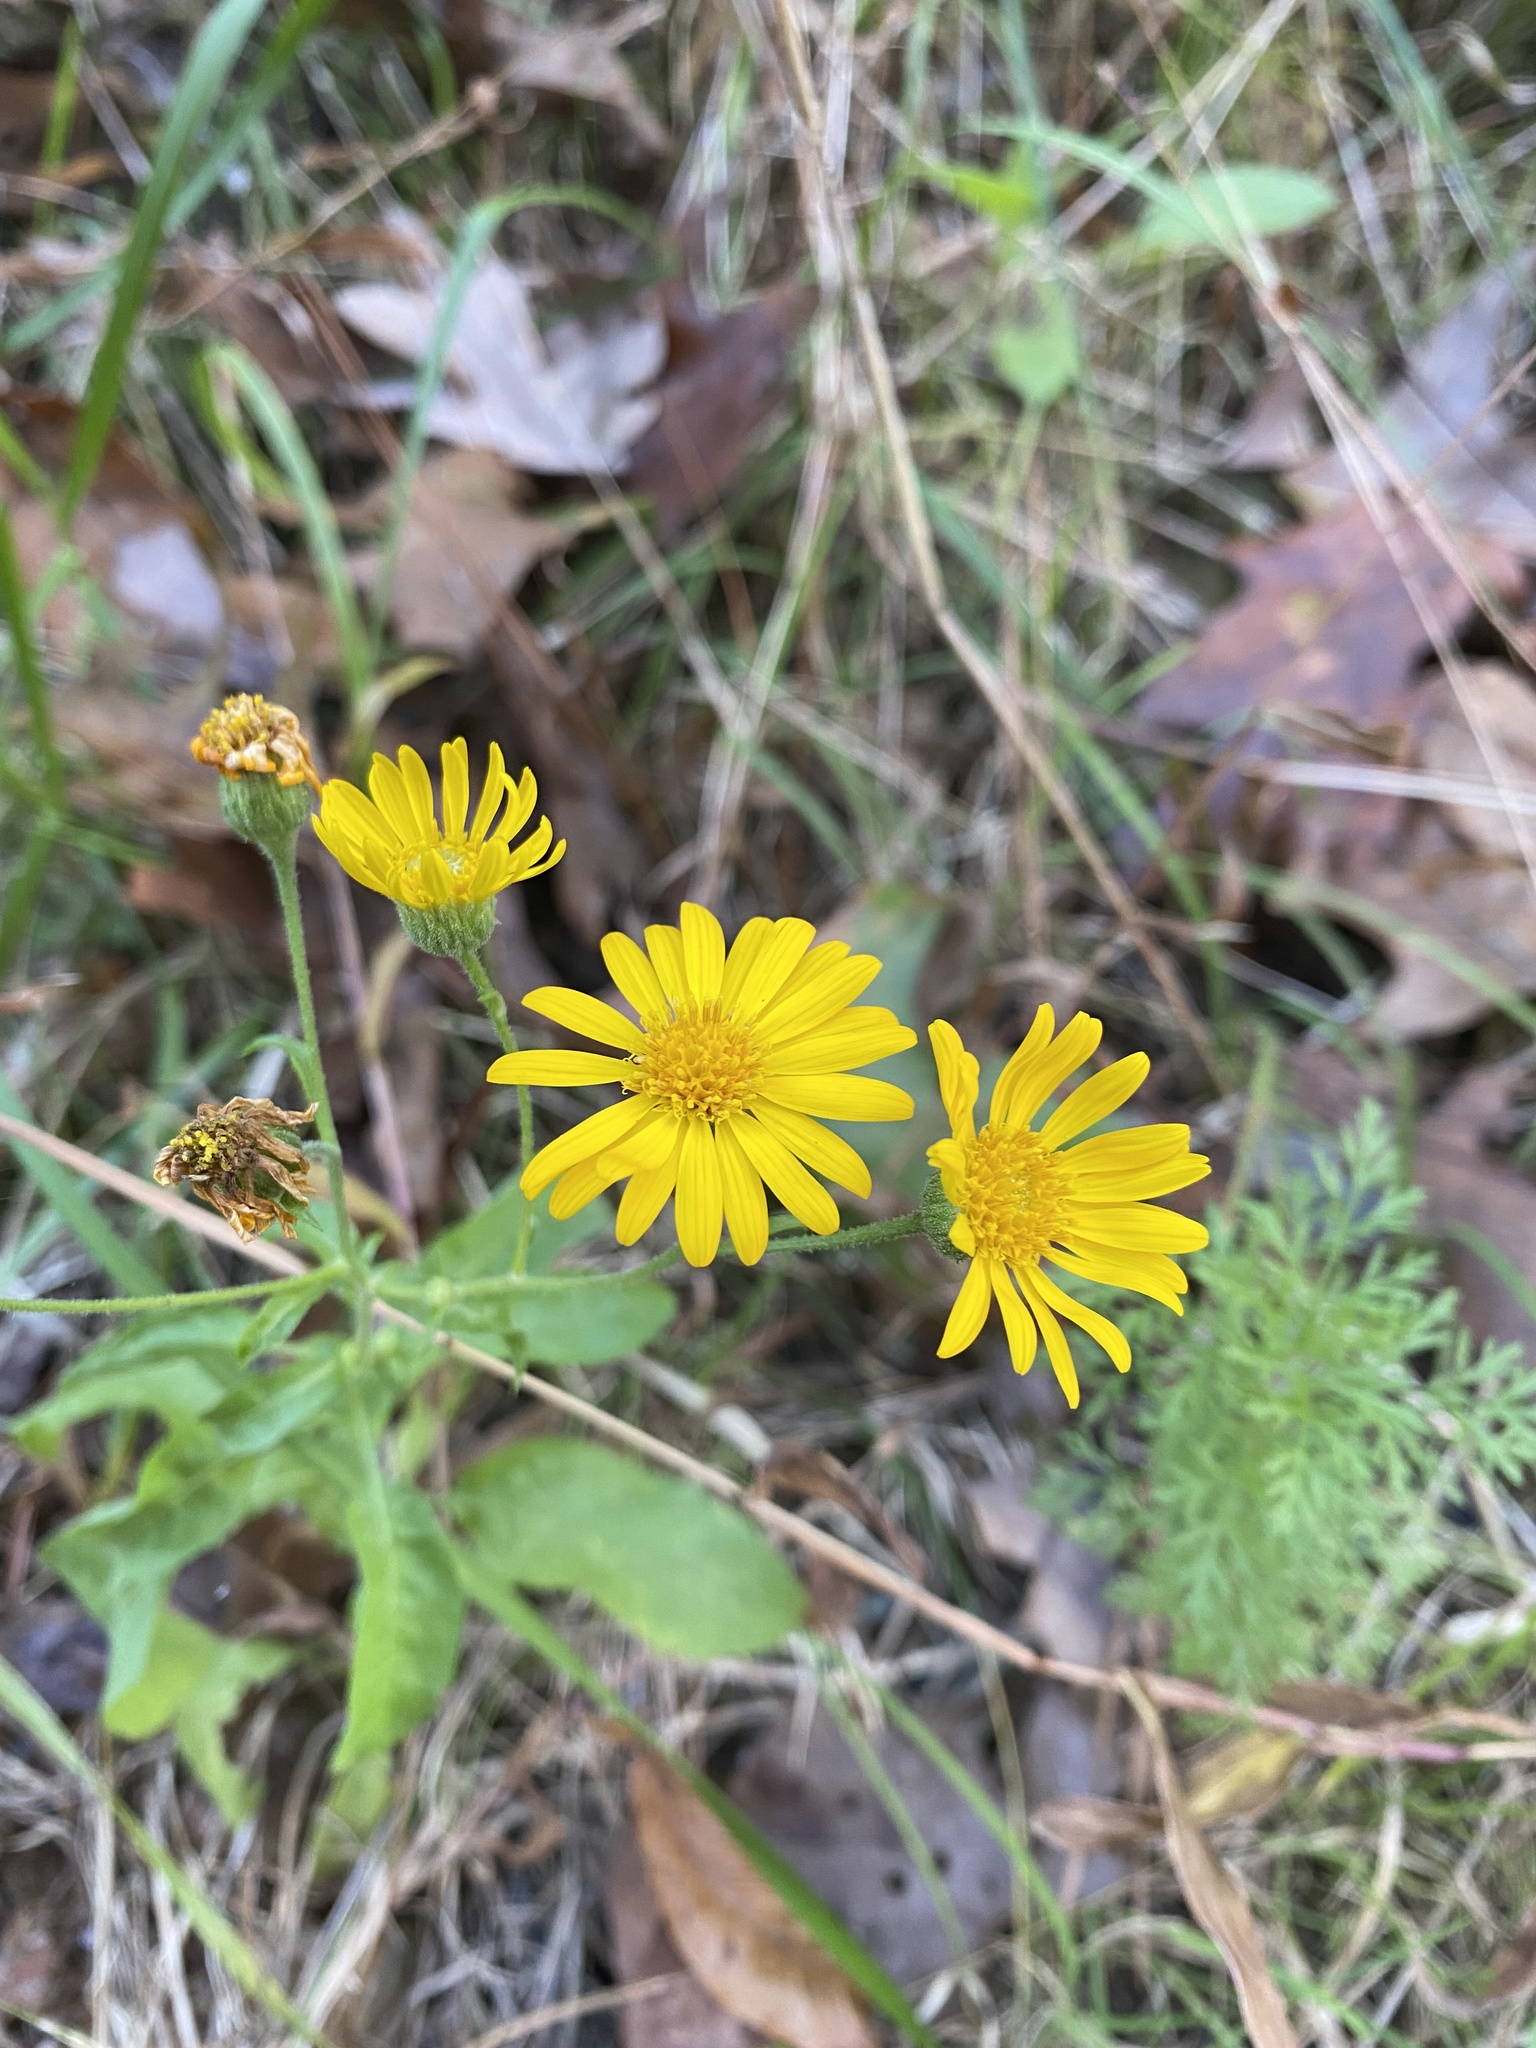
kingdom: Plantae
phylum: Tracheophyta
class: Magnoliopsida
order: Asterales
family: Asteraceae
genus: Heterotheca
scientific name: Heterotheca subaxillaris
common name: Camphorweed
